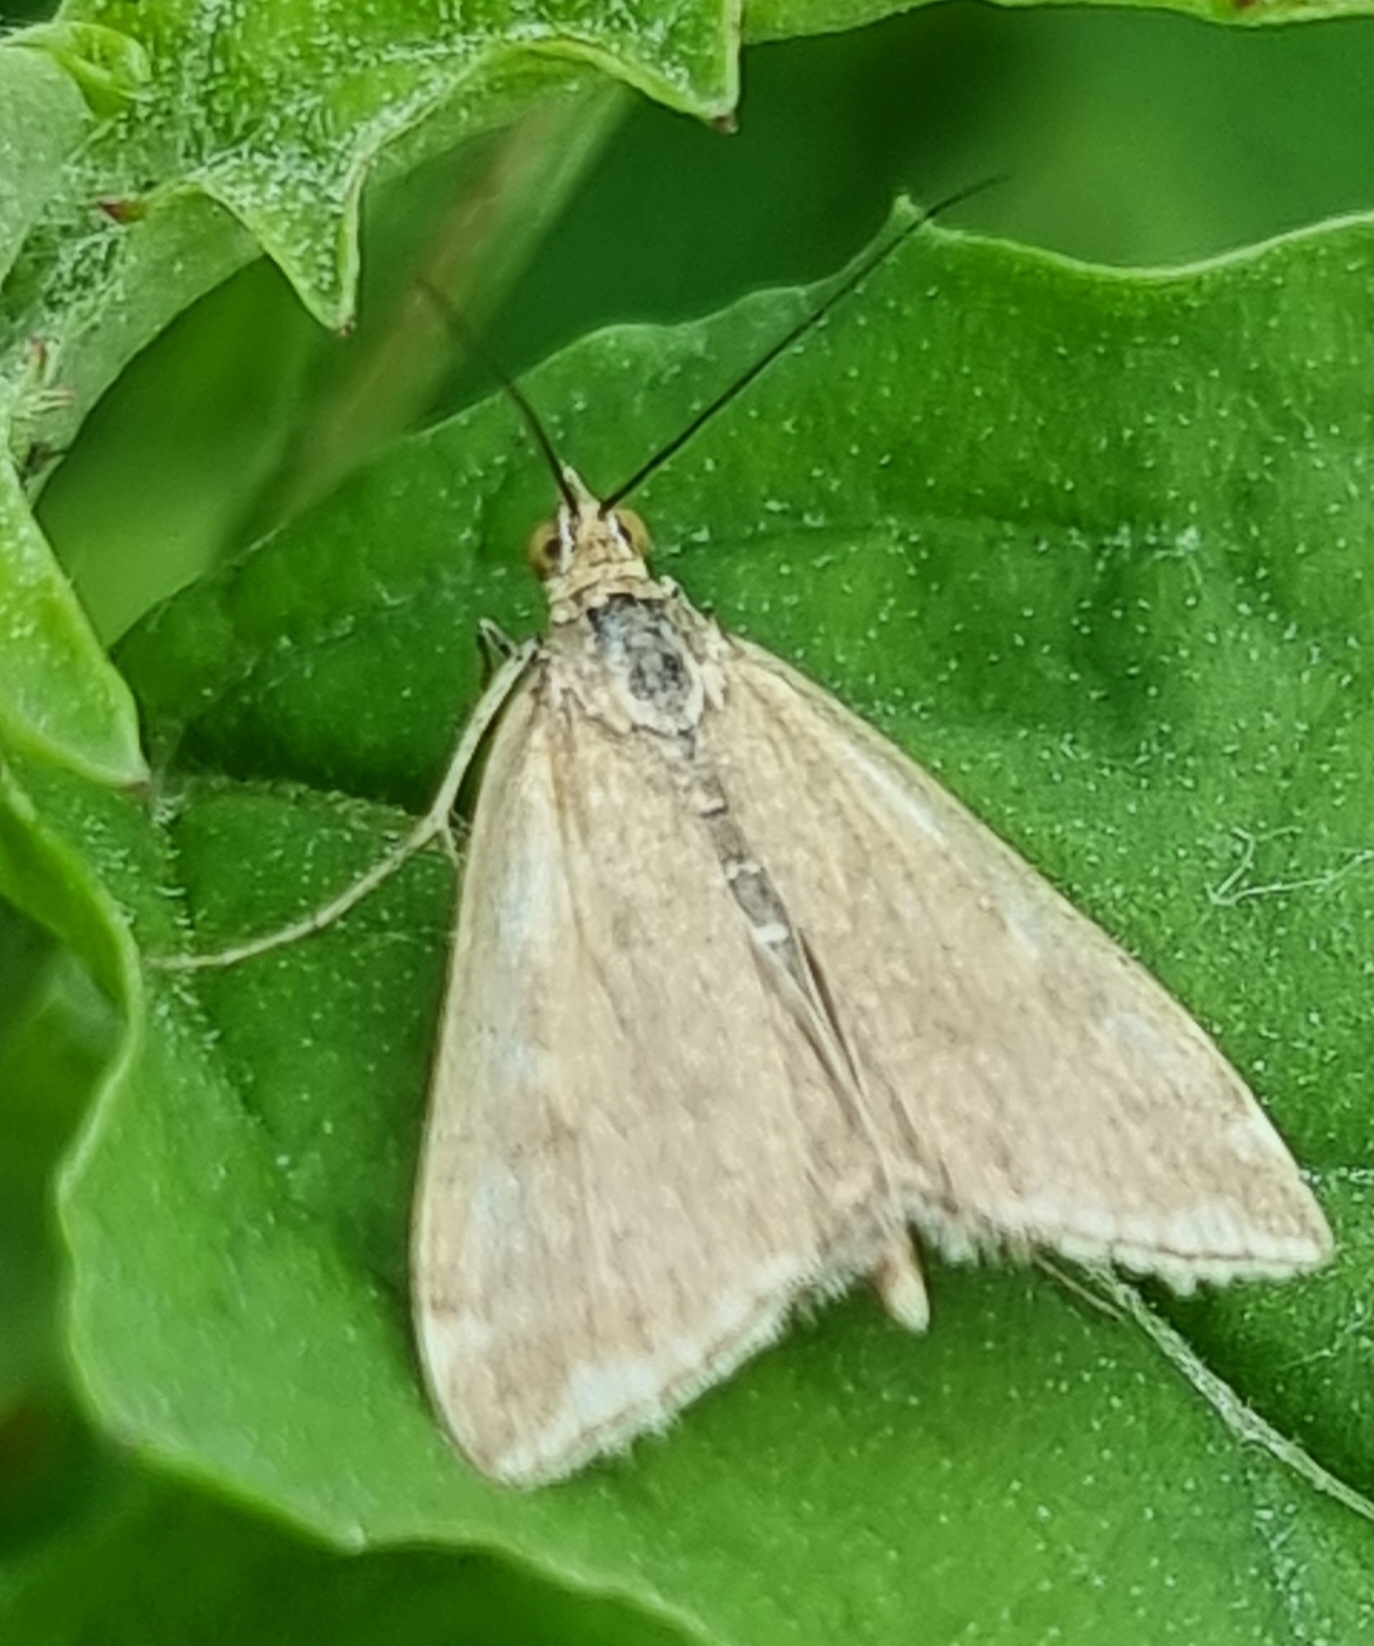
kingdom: Animalia
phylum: Arthropoda
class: Insecta
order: Lepidoptera
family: Crambidae
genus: Loxostege
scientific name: Loxostege sticticalis
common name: Crambid moth
